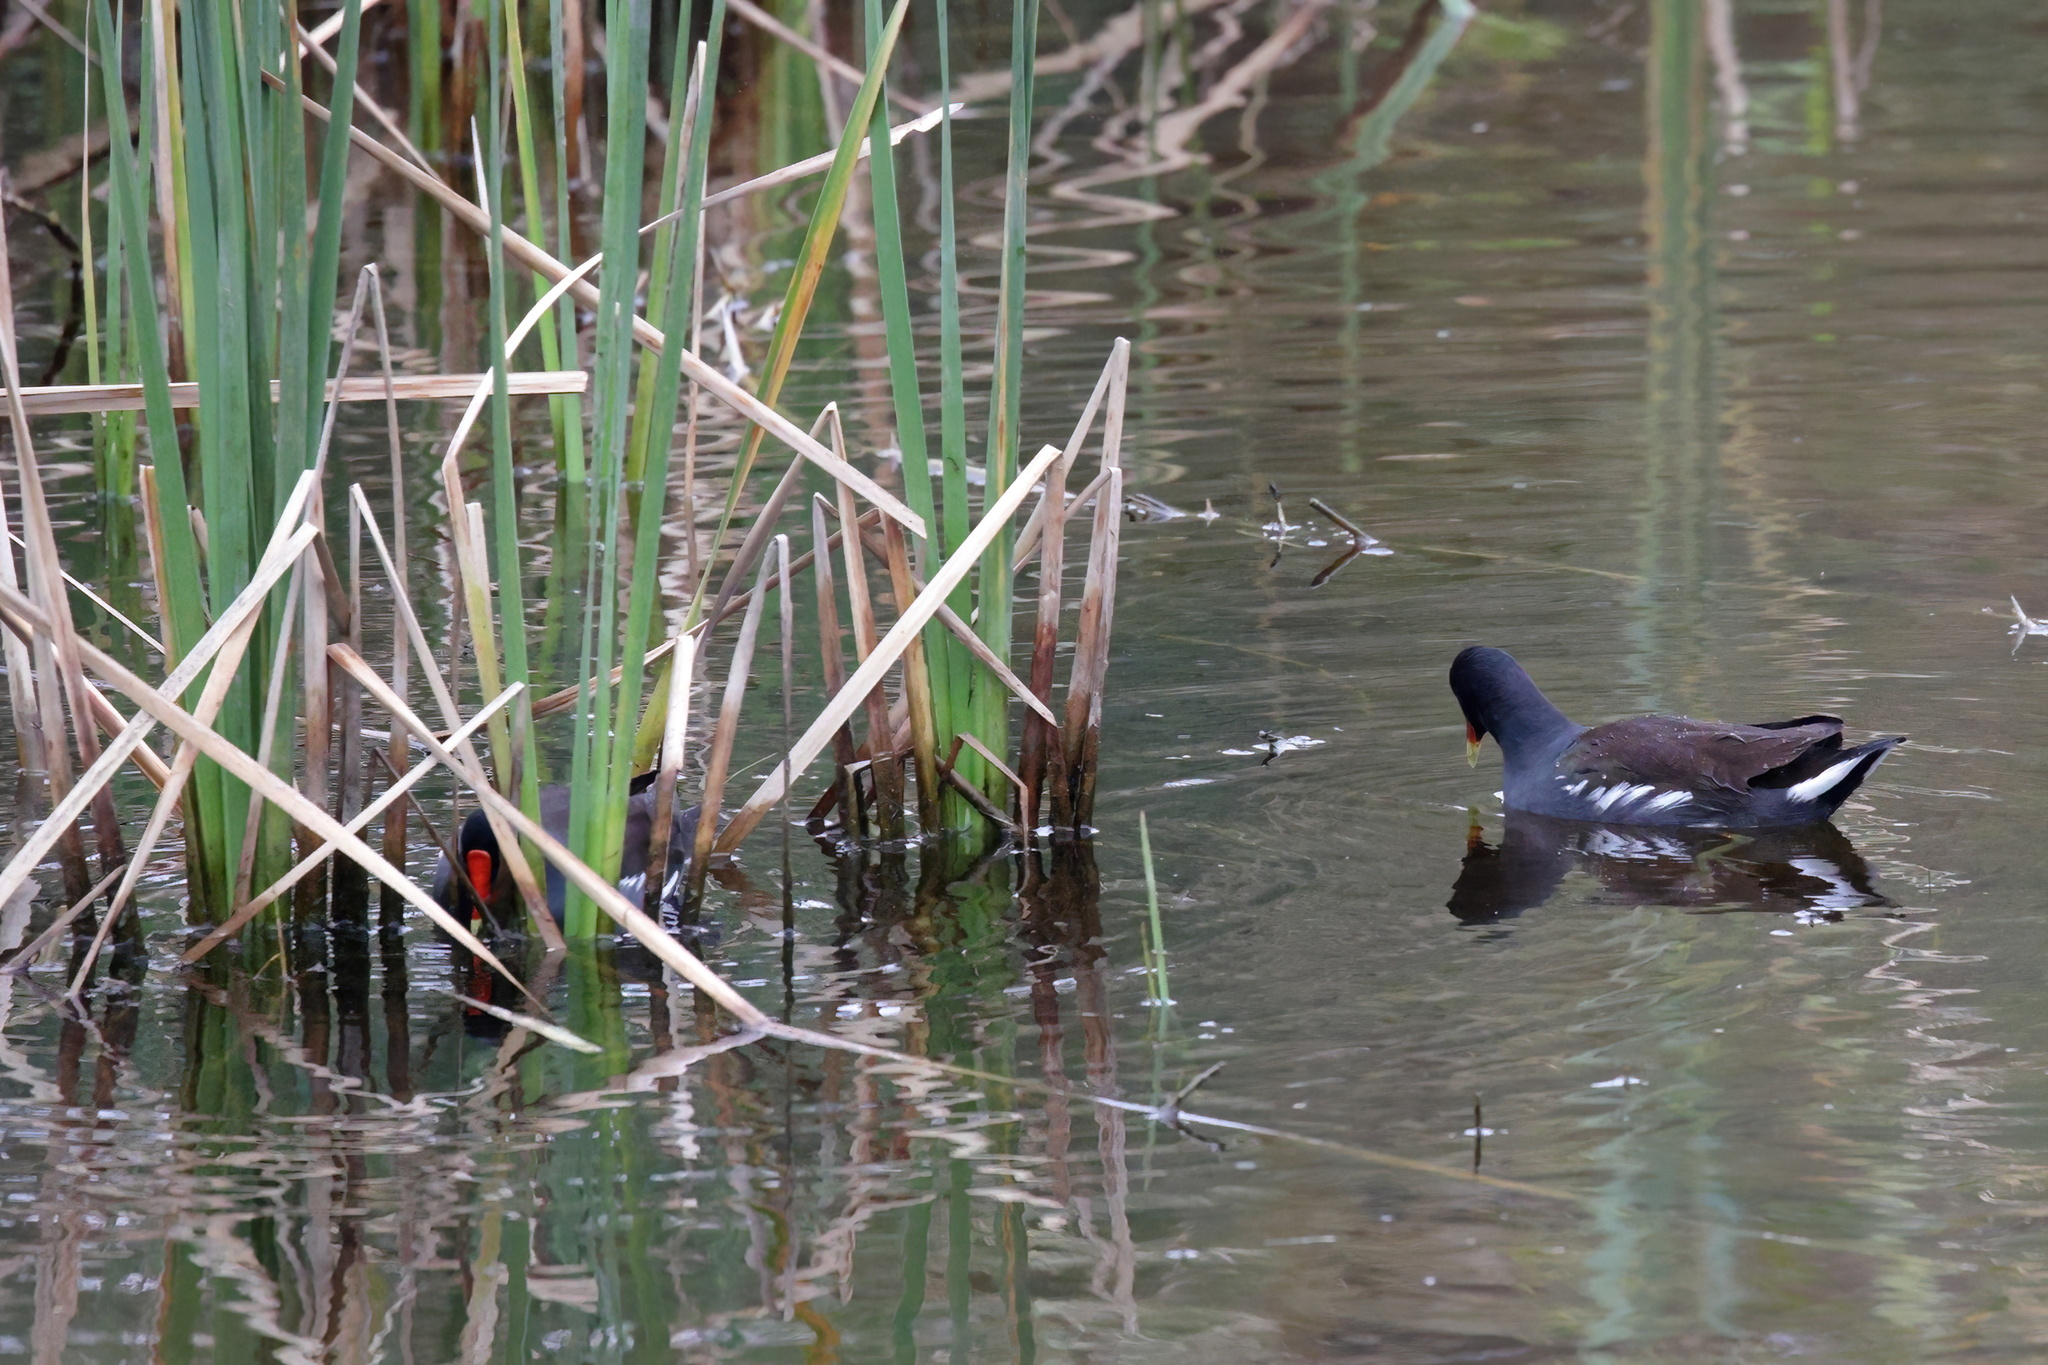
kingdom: Animalia
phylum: Chordata
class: Aves
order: Gruiformes
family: Rallidae
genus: Gallinula
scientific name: Gallinula chloropus
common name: Common moorhen
